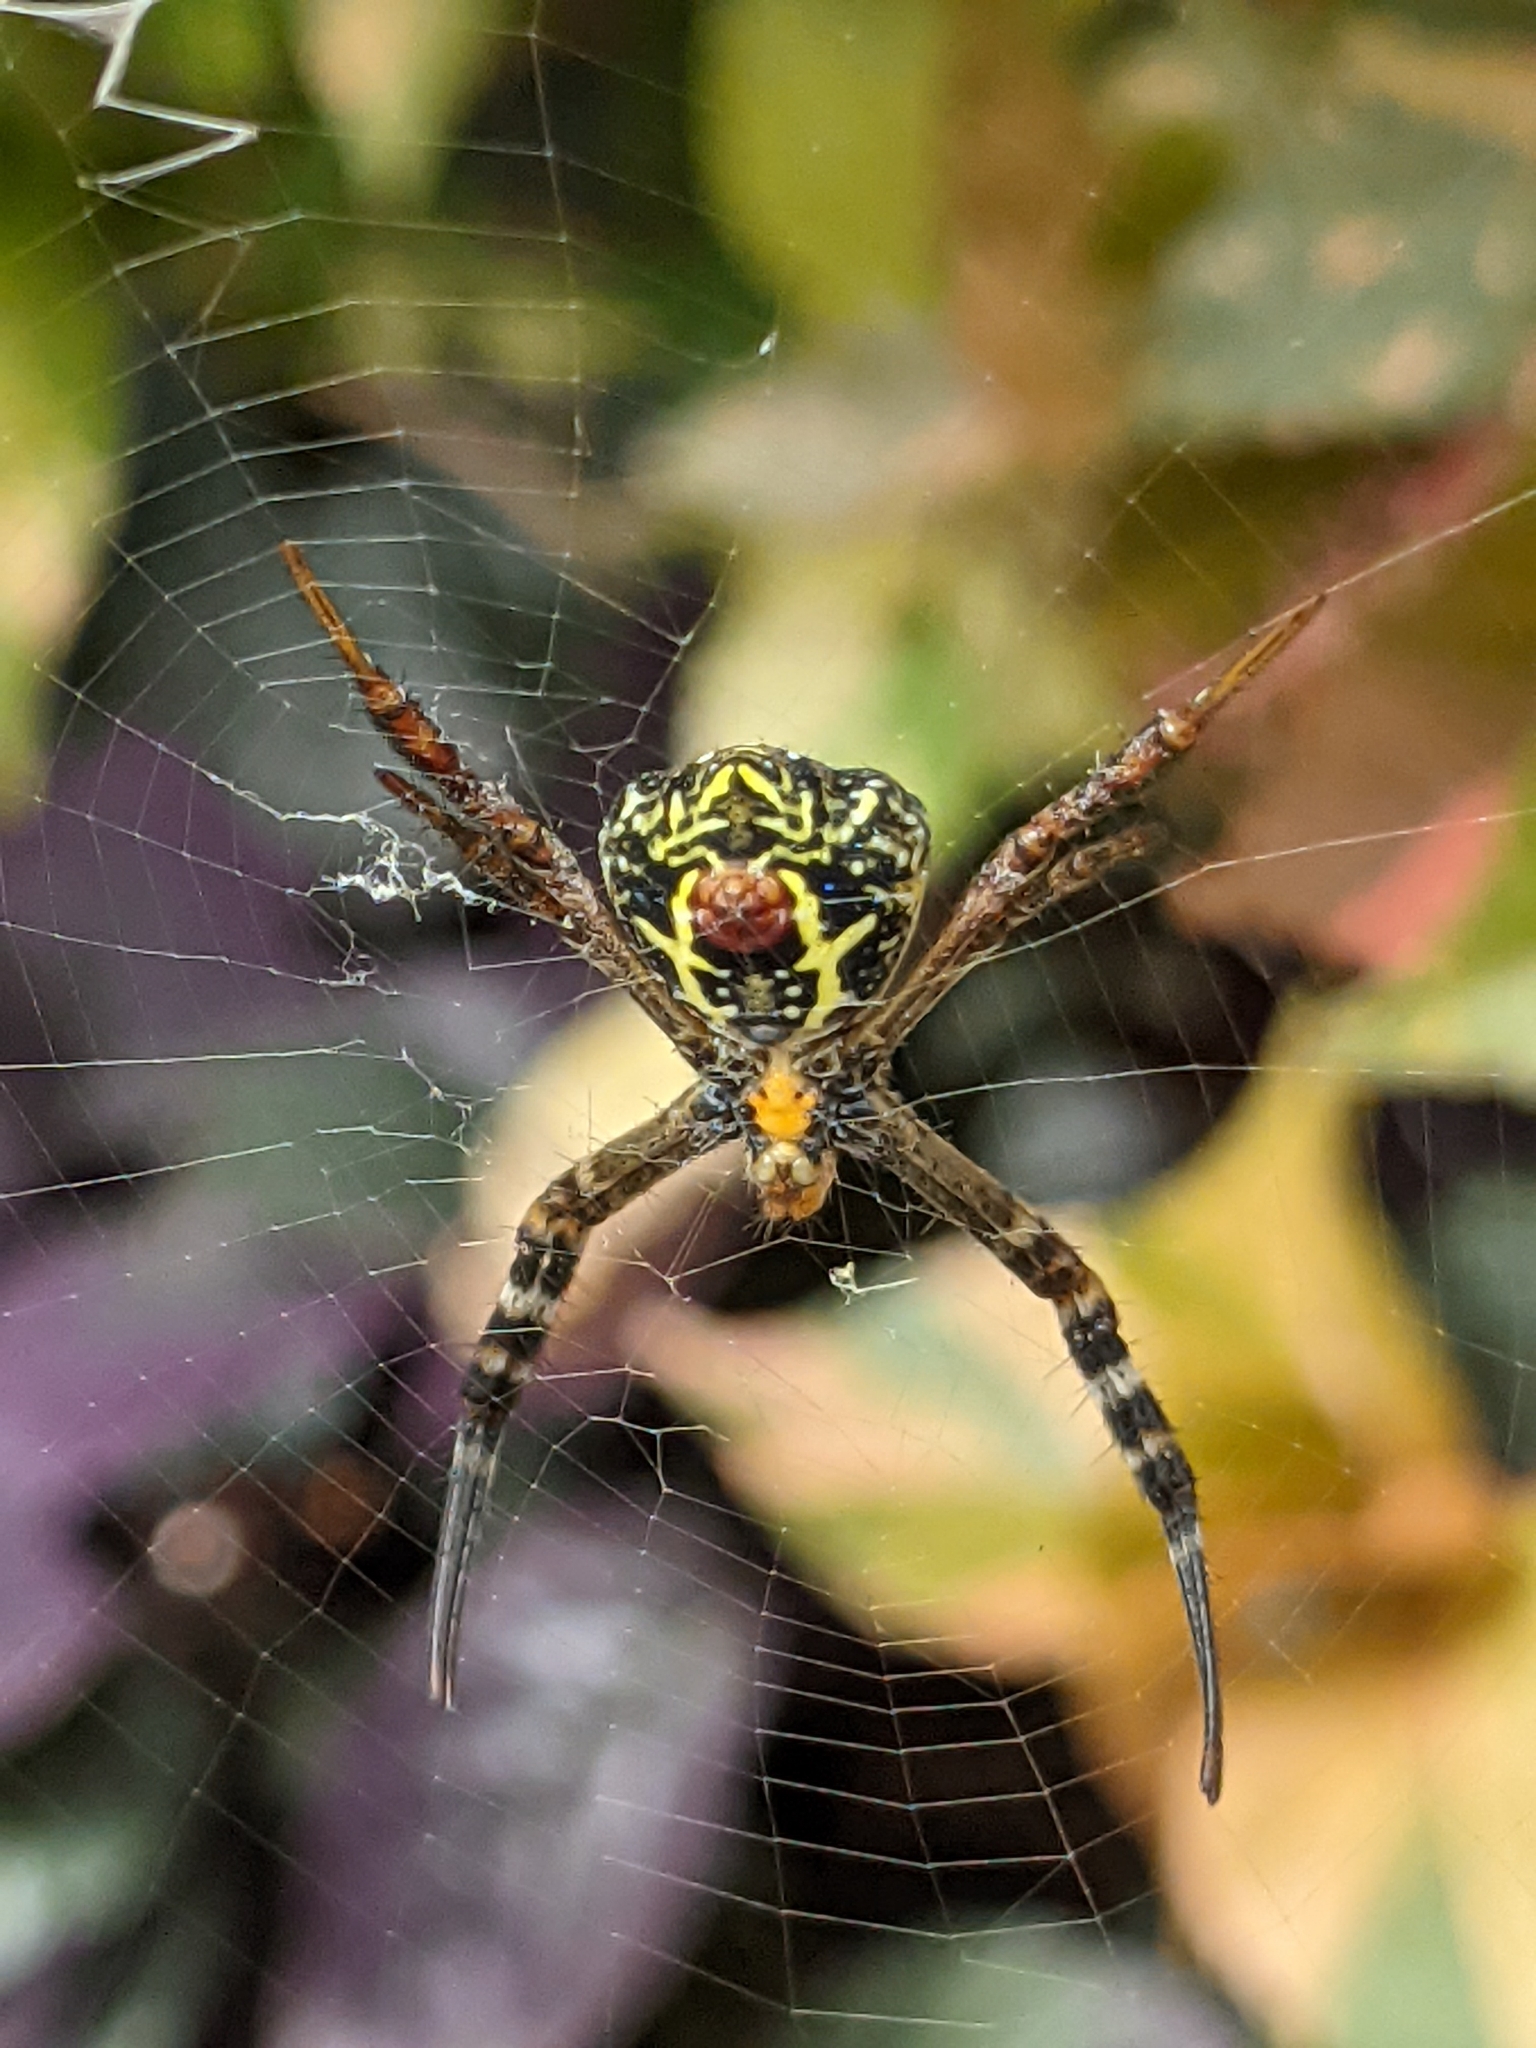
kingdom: Animalia
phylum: Arthropoda
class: Arachnida
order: Araneae
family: Araneidae
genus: Argiope
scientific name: Argiope anasuja
